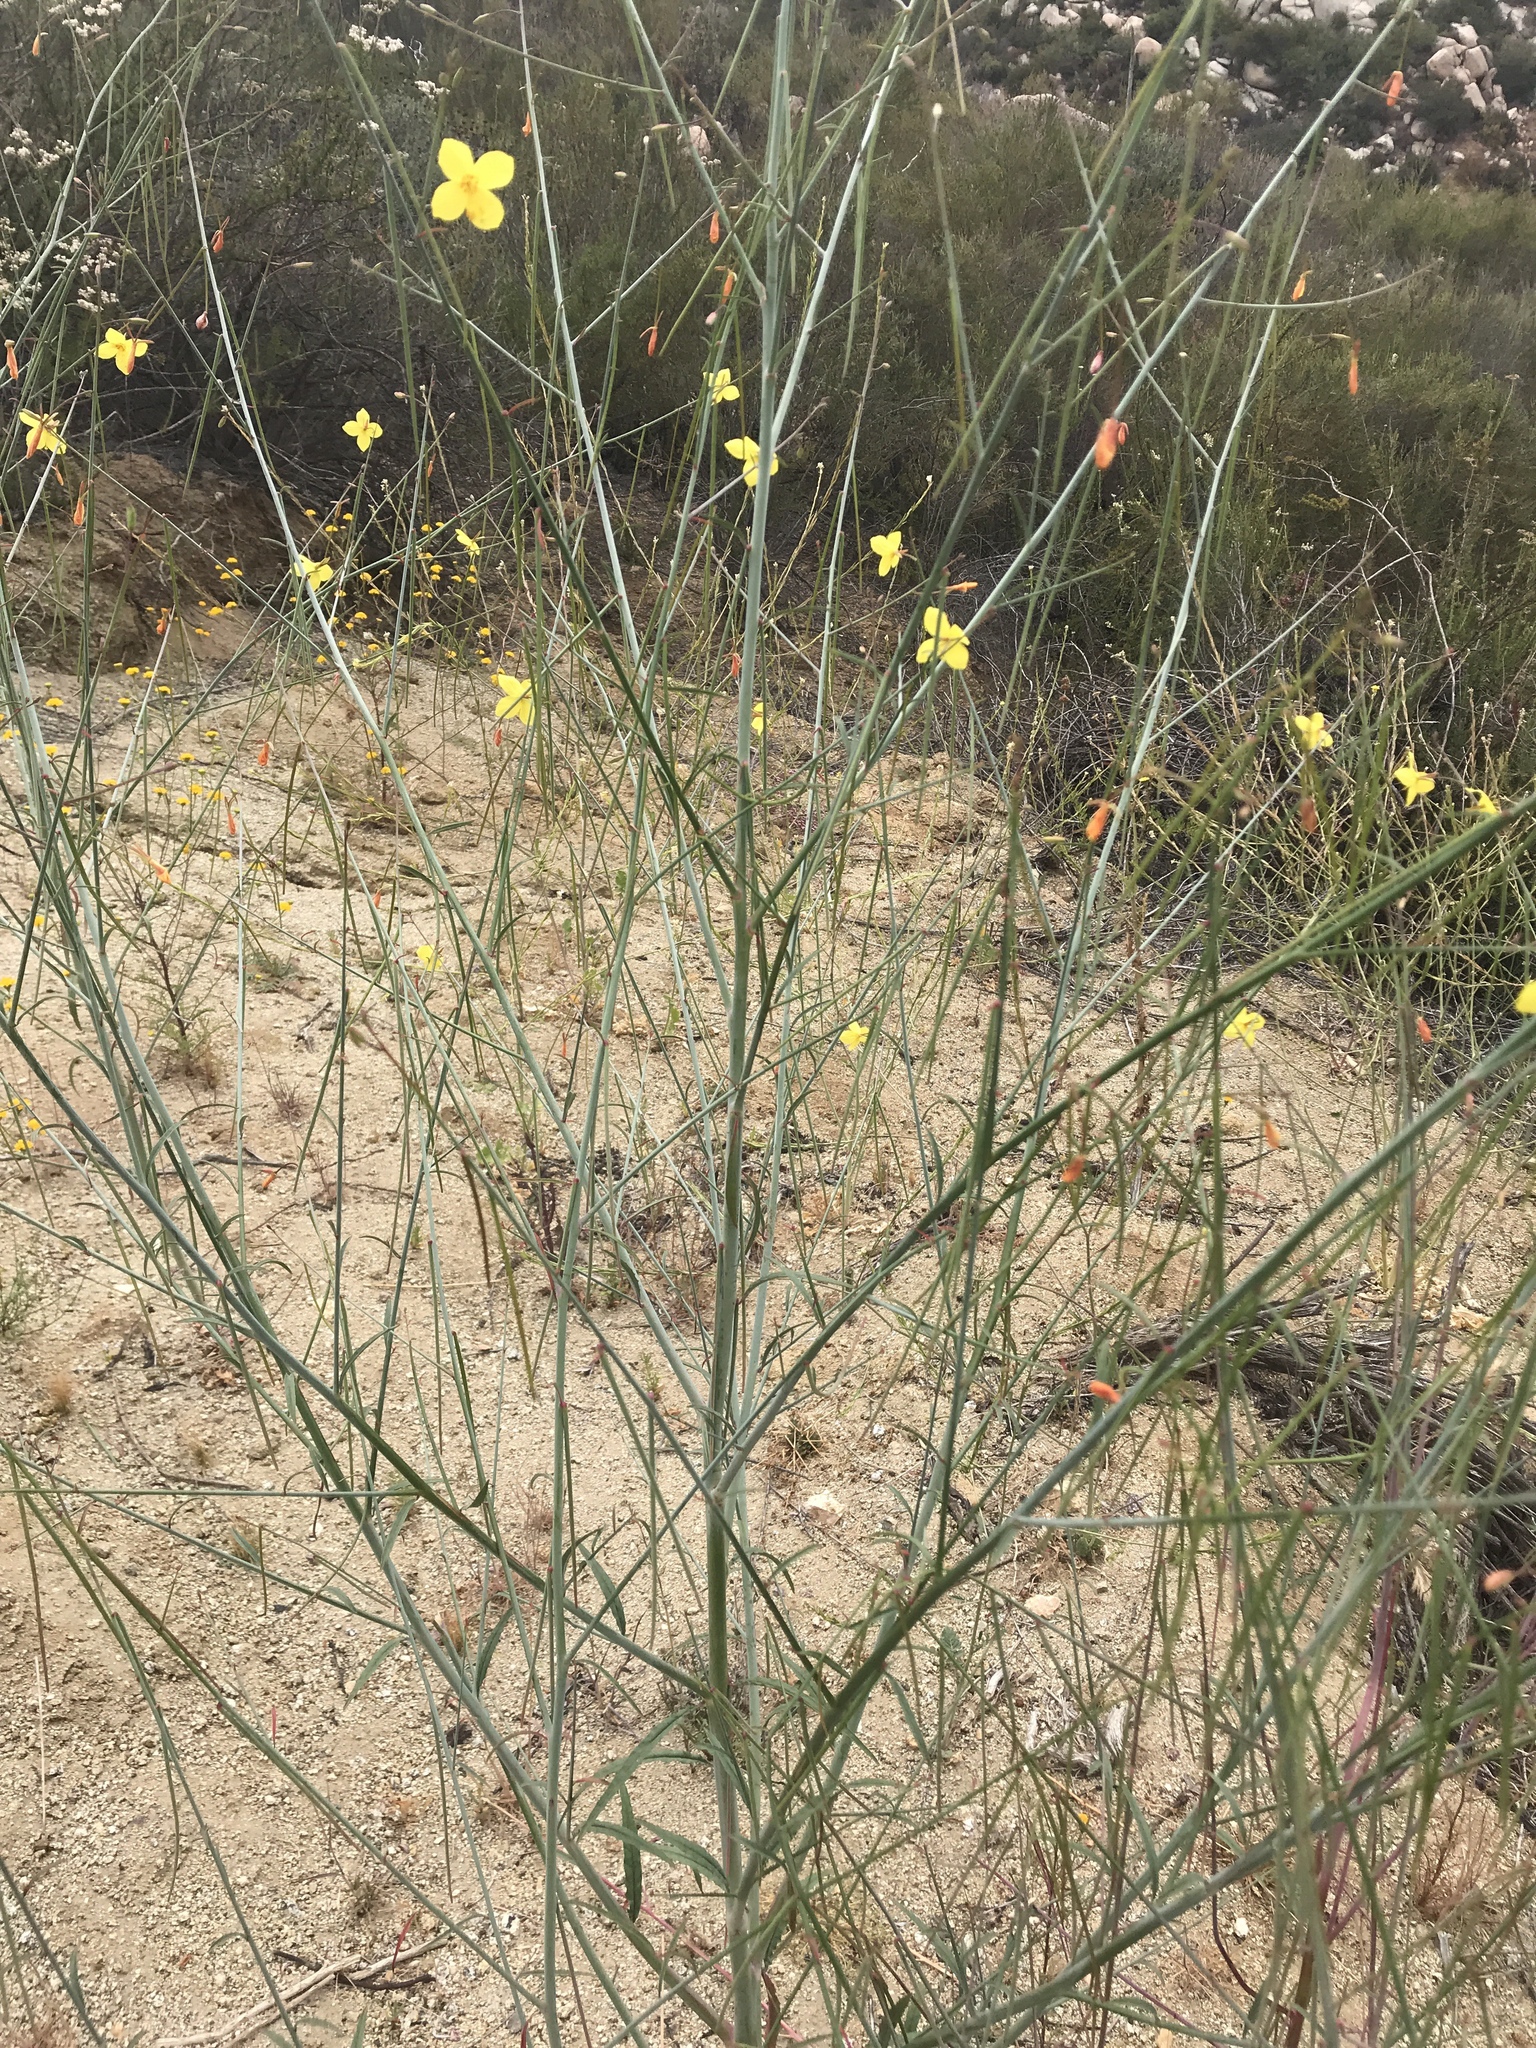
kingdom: Plantae
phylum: Tracheophyta
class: Magnoliopsida
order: Myrtales
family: Onagraceae
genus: Eulobus
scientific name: Eulobus californicus
